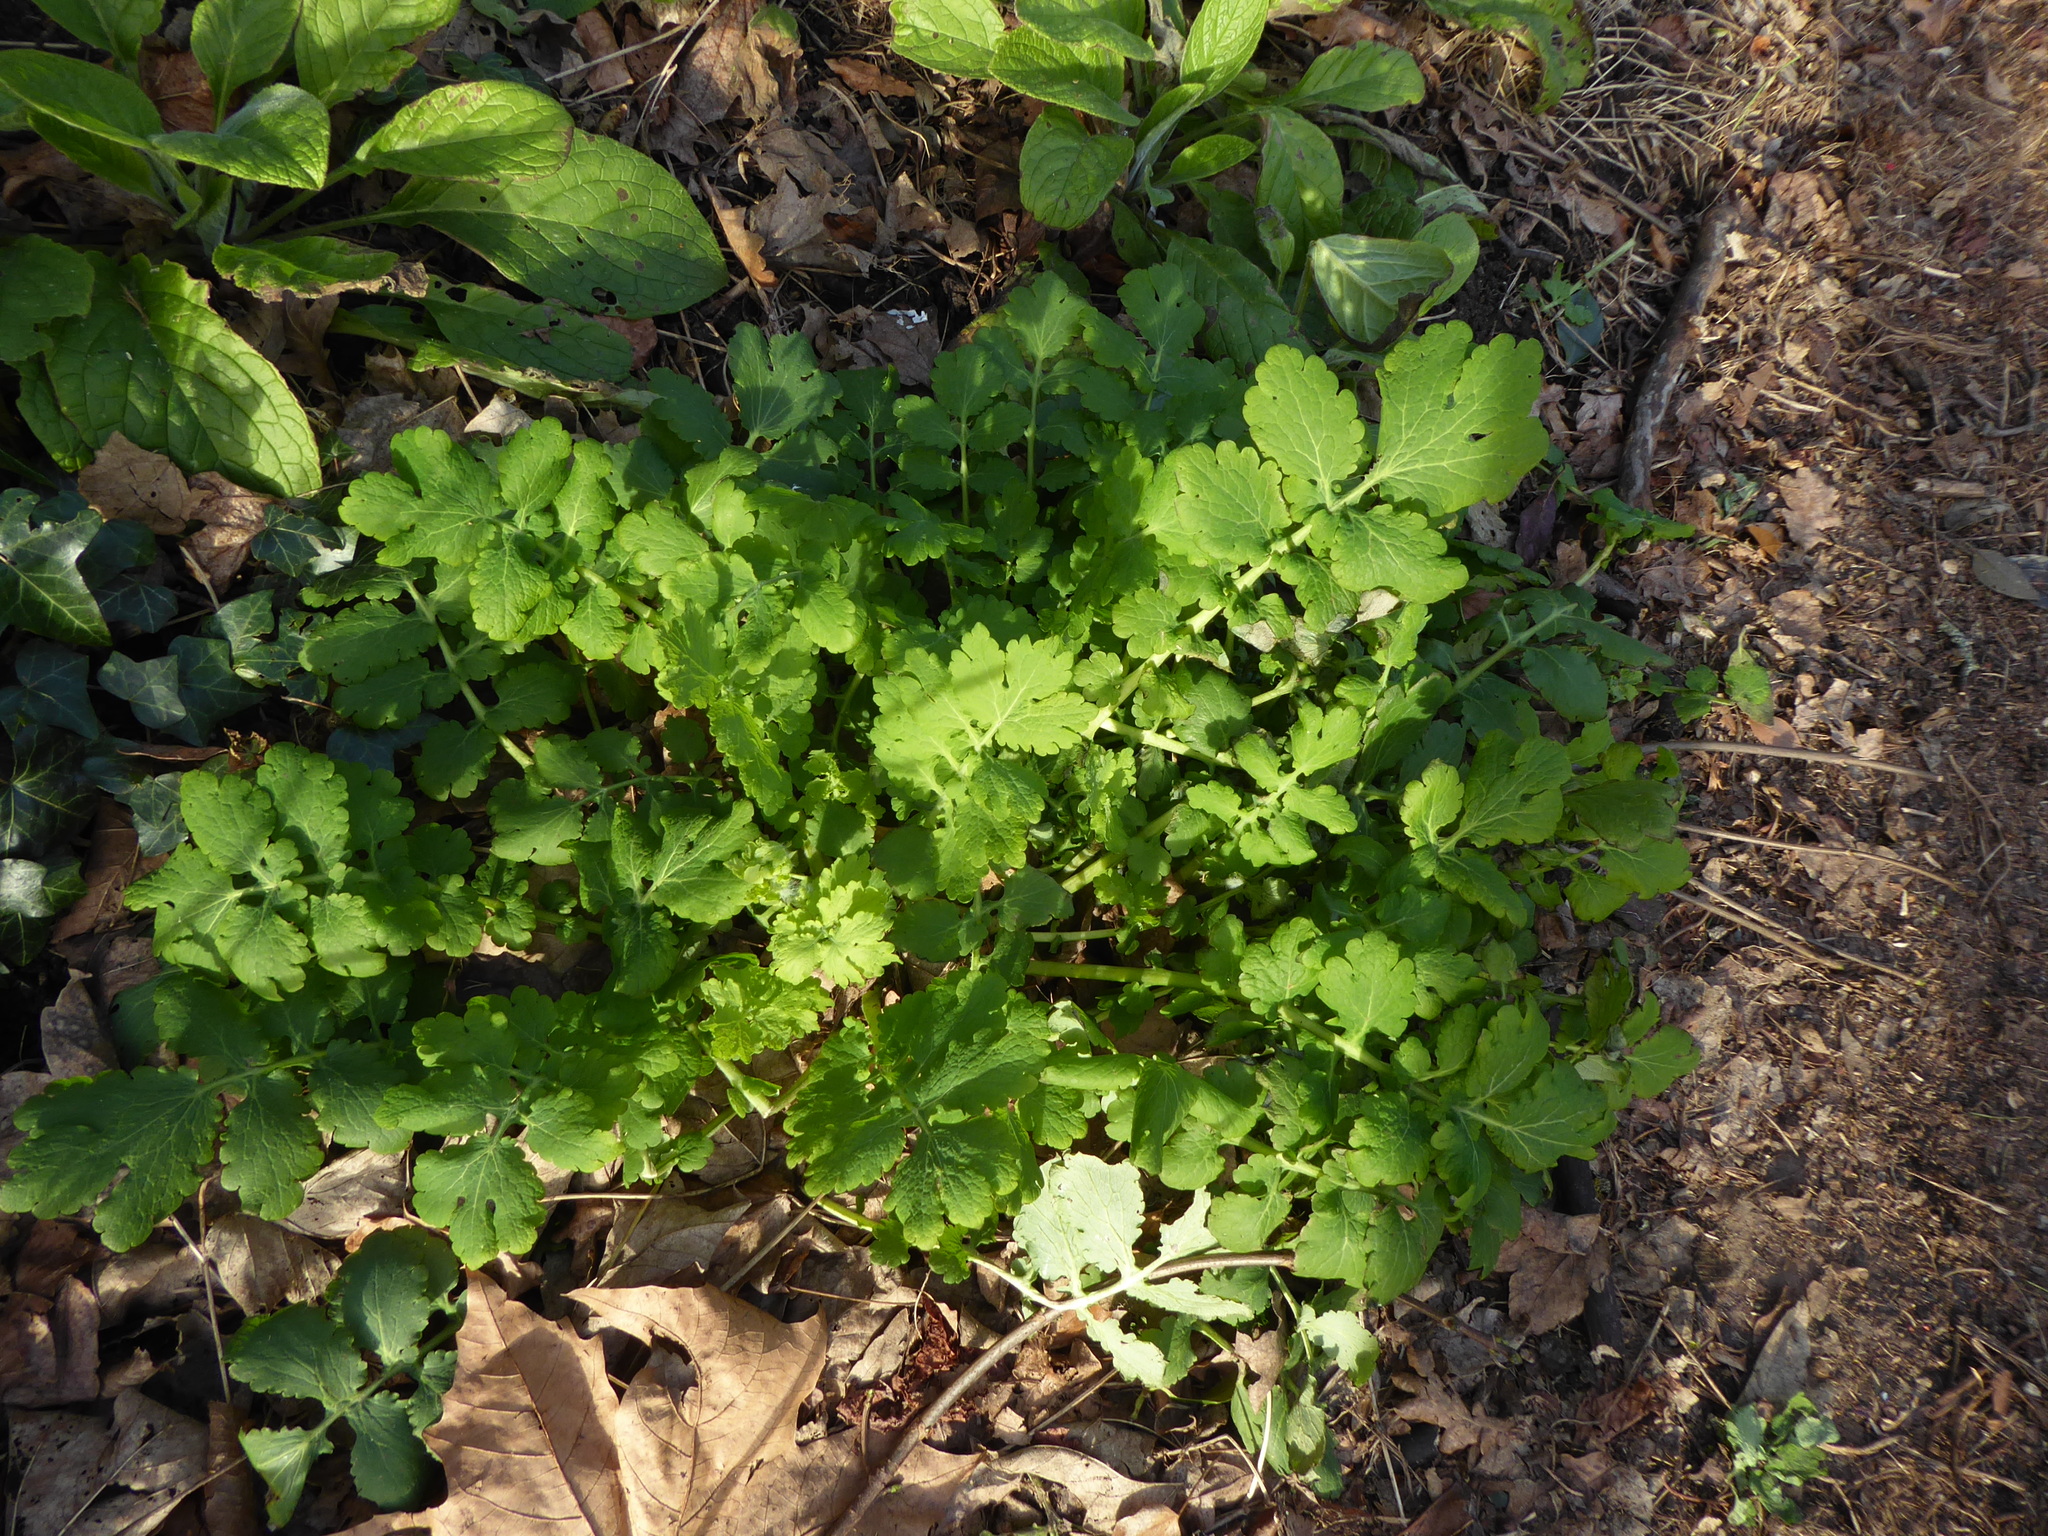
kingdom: Plantae
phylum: Tracheophyta
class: Magnoliopsida
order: Ranunculales
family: Papaveraceae
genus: Chelidonium
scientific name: Chelidonium majus
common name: Greater celandine
